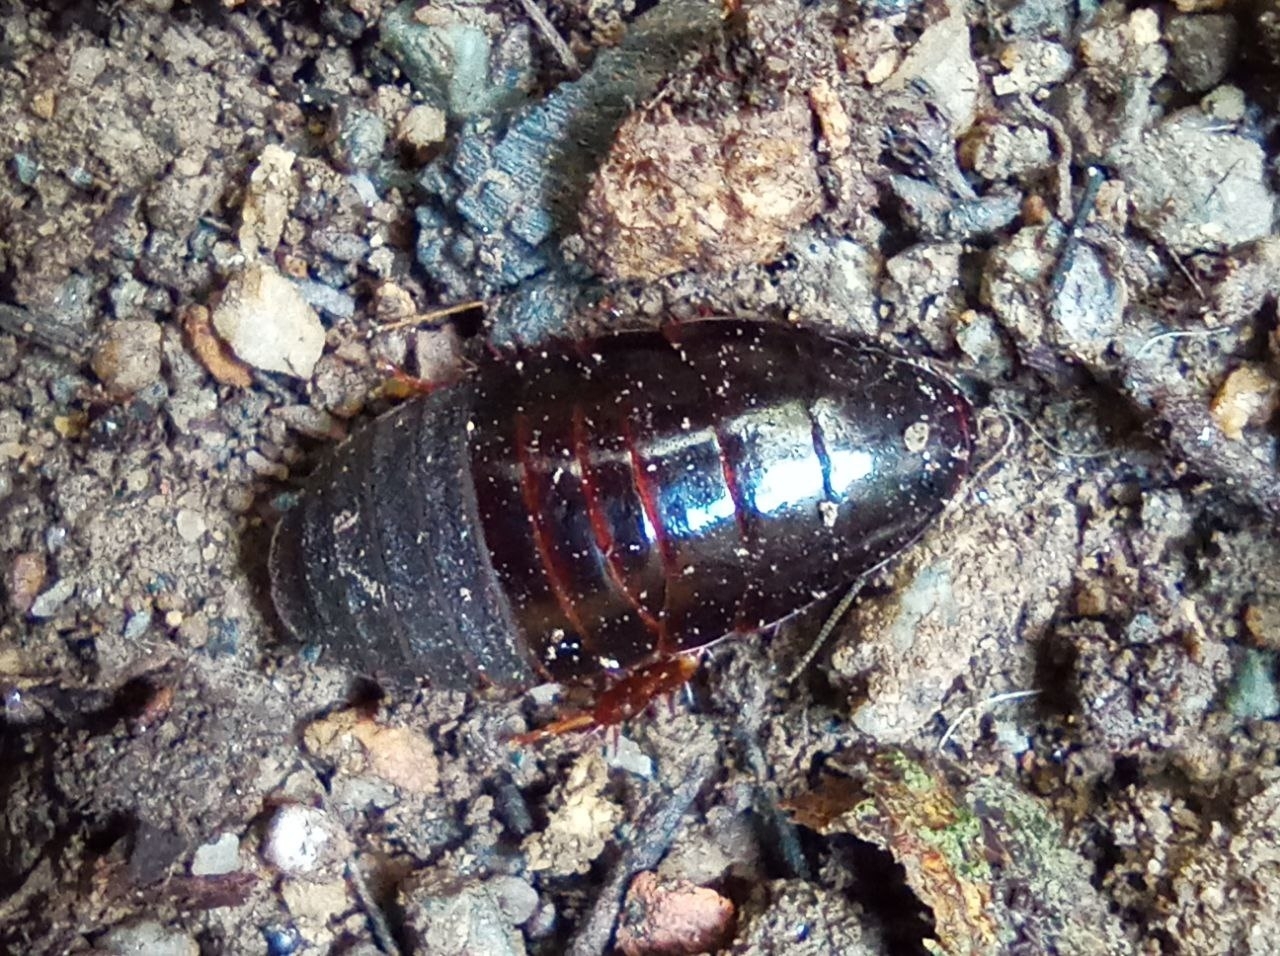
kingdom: Animalia
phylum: Arthropoda
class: Insecta
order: Blattodea
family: Blaberidae
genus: Pycnoscelus
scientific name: Pycnoscelus surinamensis
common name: Surinam cockroach
